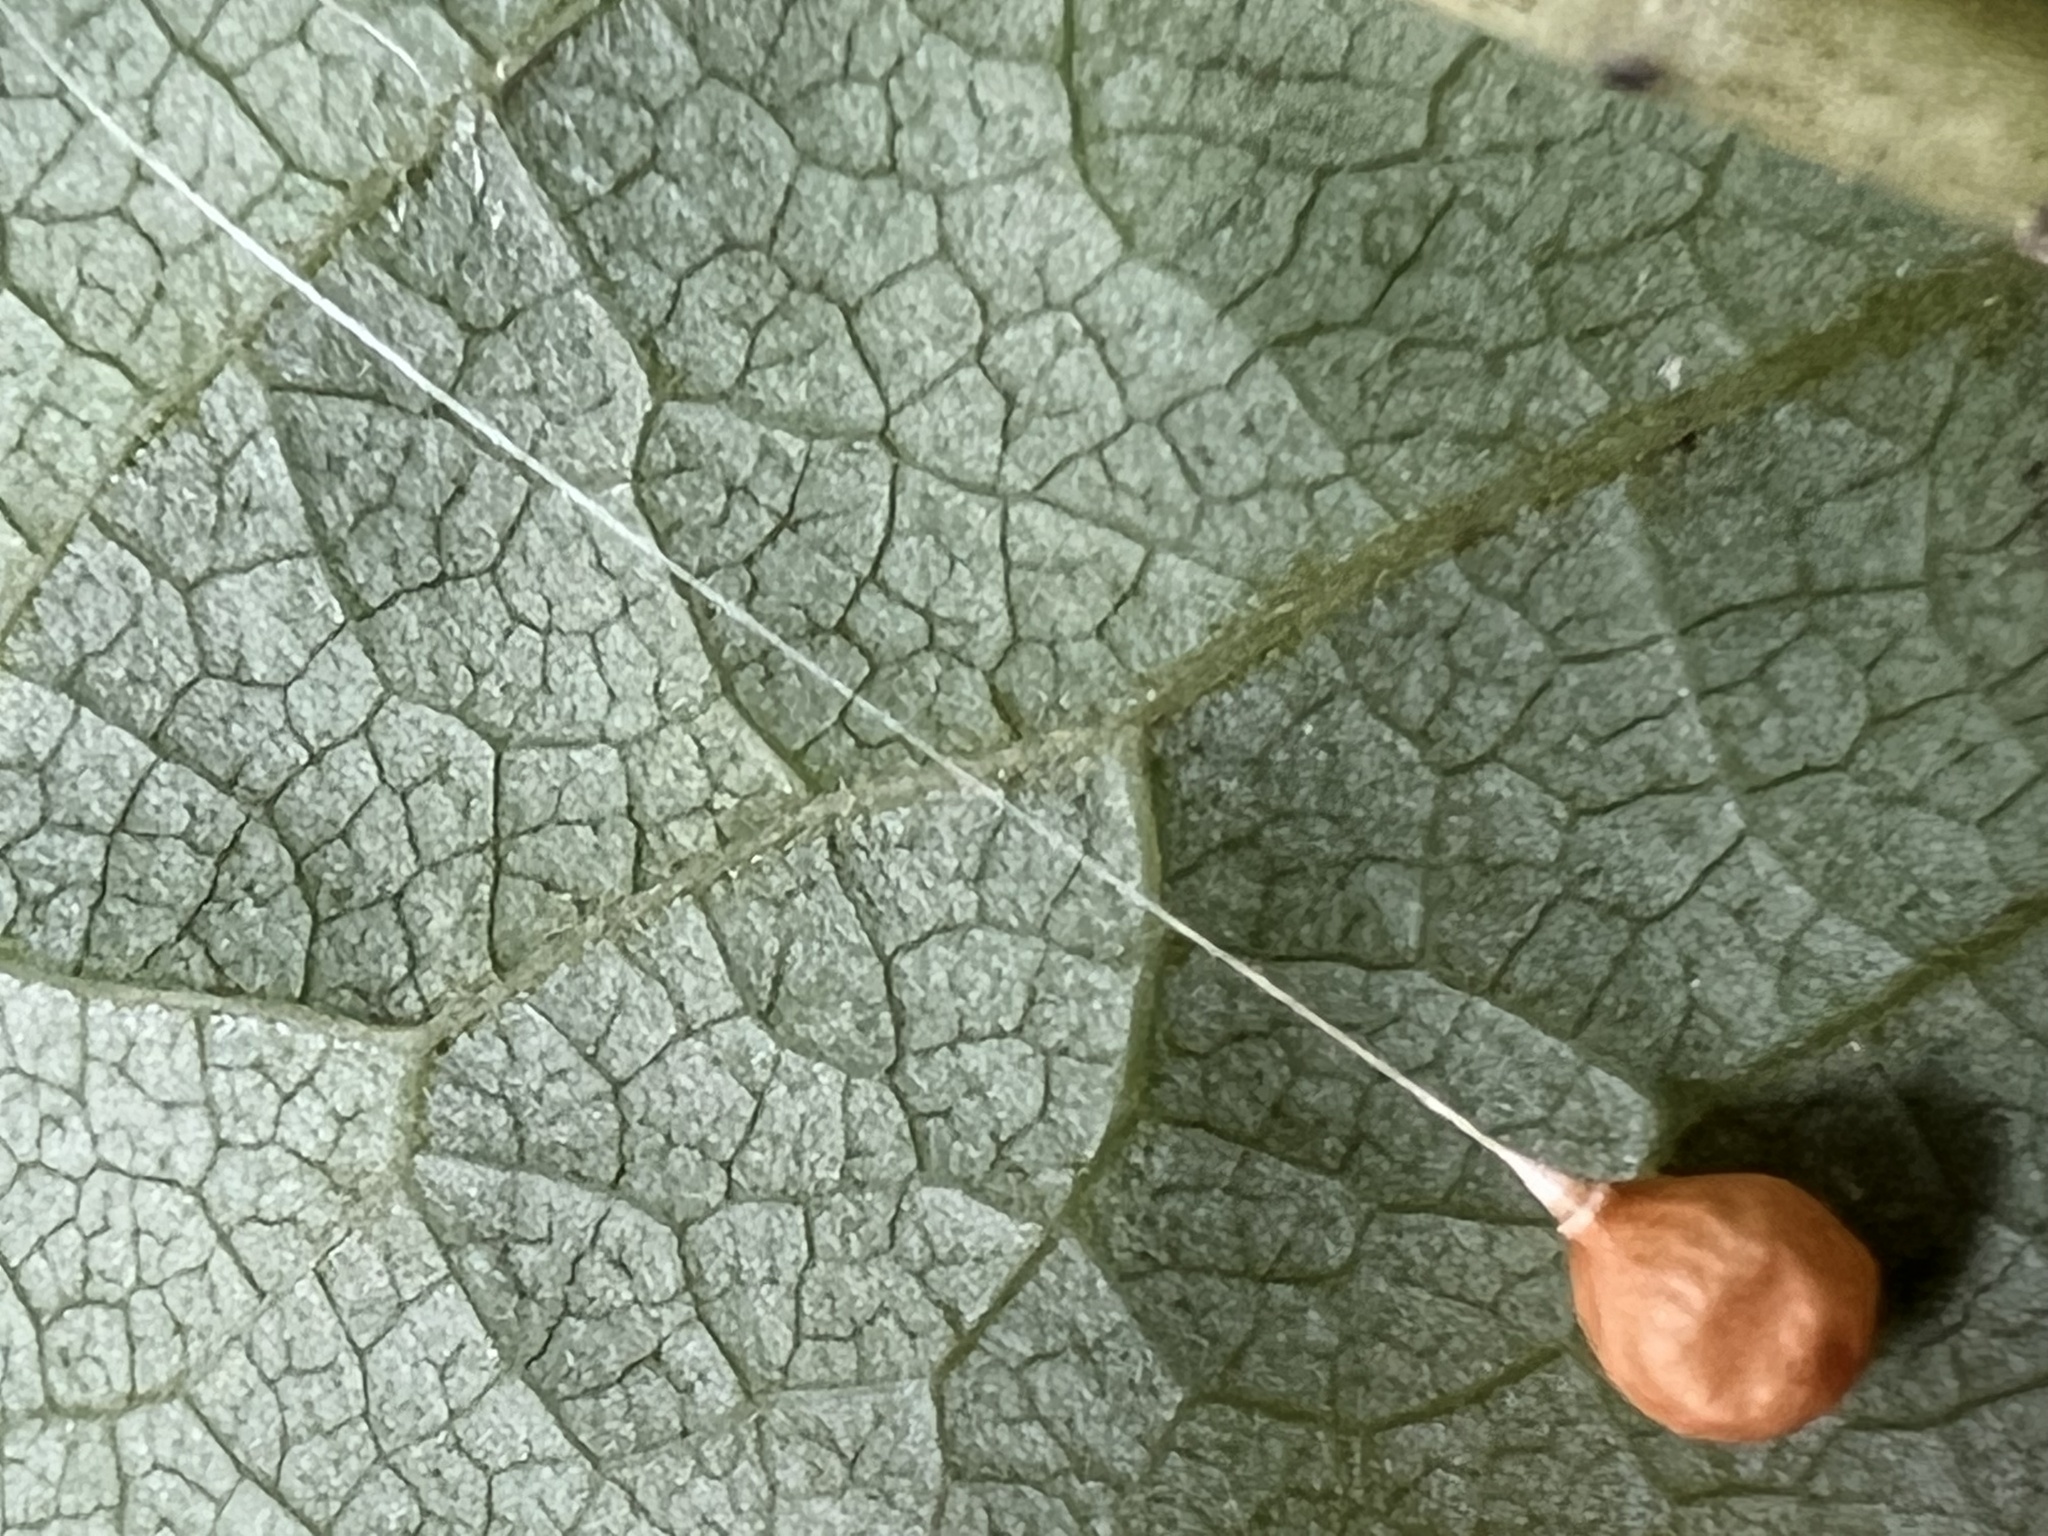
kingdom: Animalia
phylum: Arthropoda
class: Arachnida
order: Araneae
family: Theridiosomatidae
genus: Theridiosoma
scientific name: Theridiosoma gemmosum
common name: Ray spider
